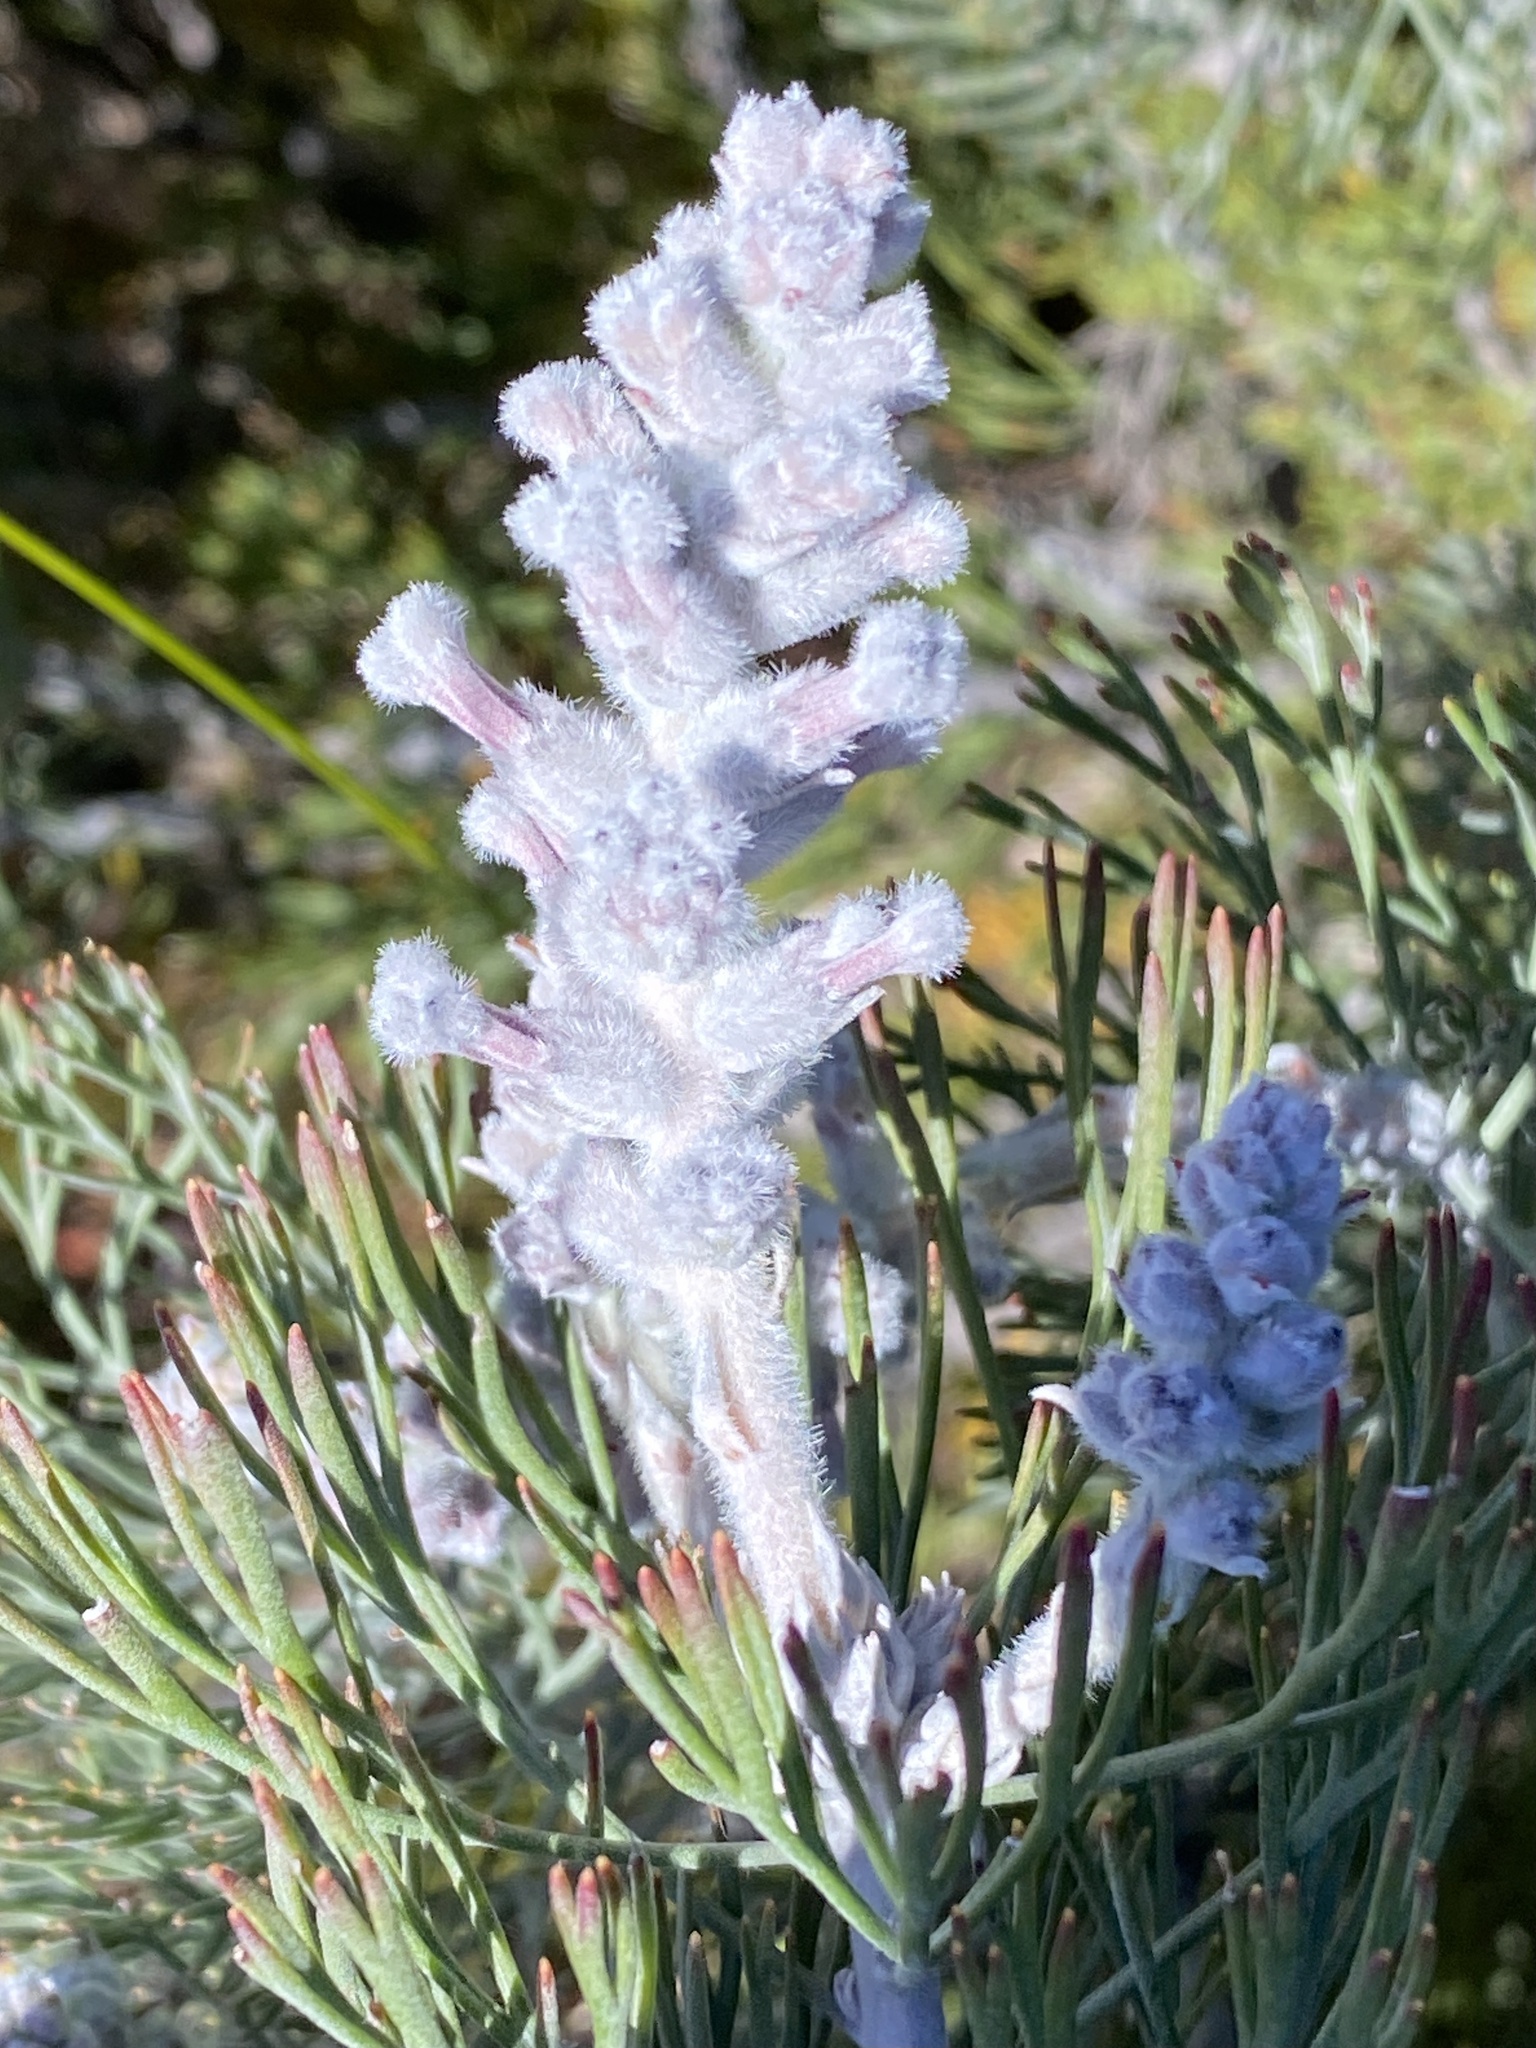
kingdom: Plantae
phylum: Tracheophyta
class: Magnoliopsida
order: Proteales
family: Proteaceae
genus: Paranomus
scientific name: Paranomus dispersus
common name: Long-head sceptre
